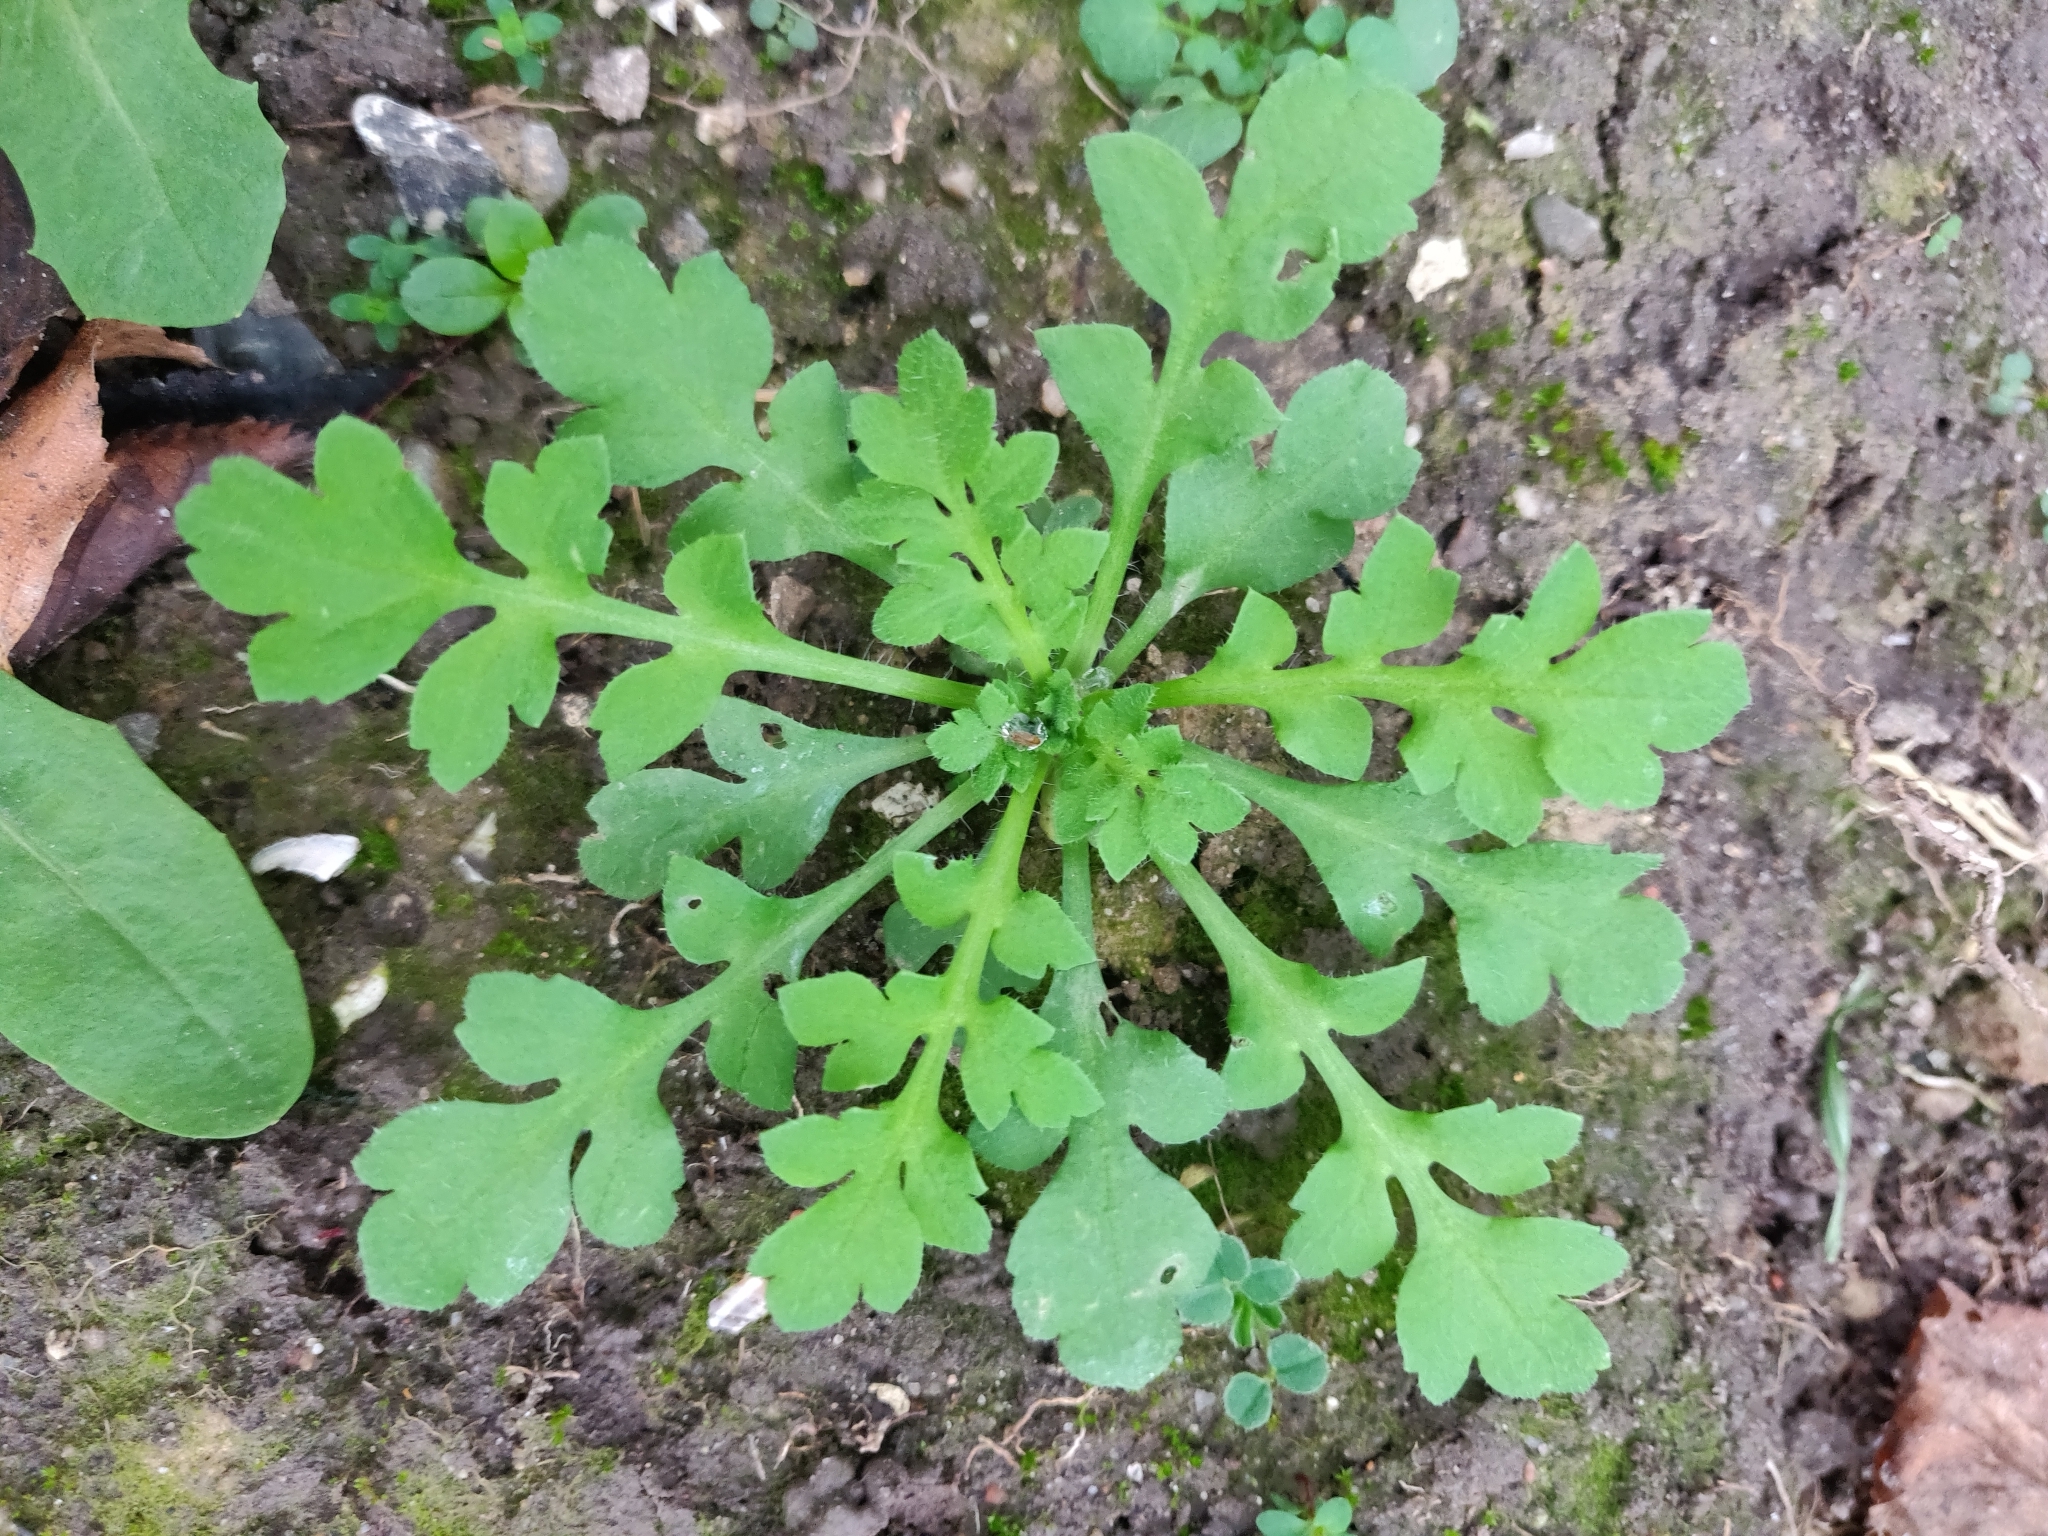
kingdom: Plantae
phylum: Tracheophyta
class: Magnoliopsida
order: Ranunculales
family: Papaveraceae
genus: Papaver
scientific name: Papaver rhoeas
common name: Corn poppy
